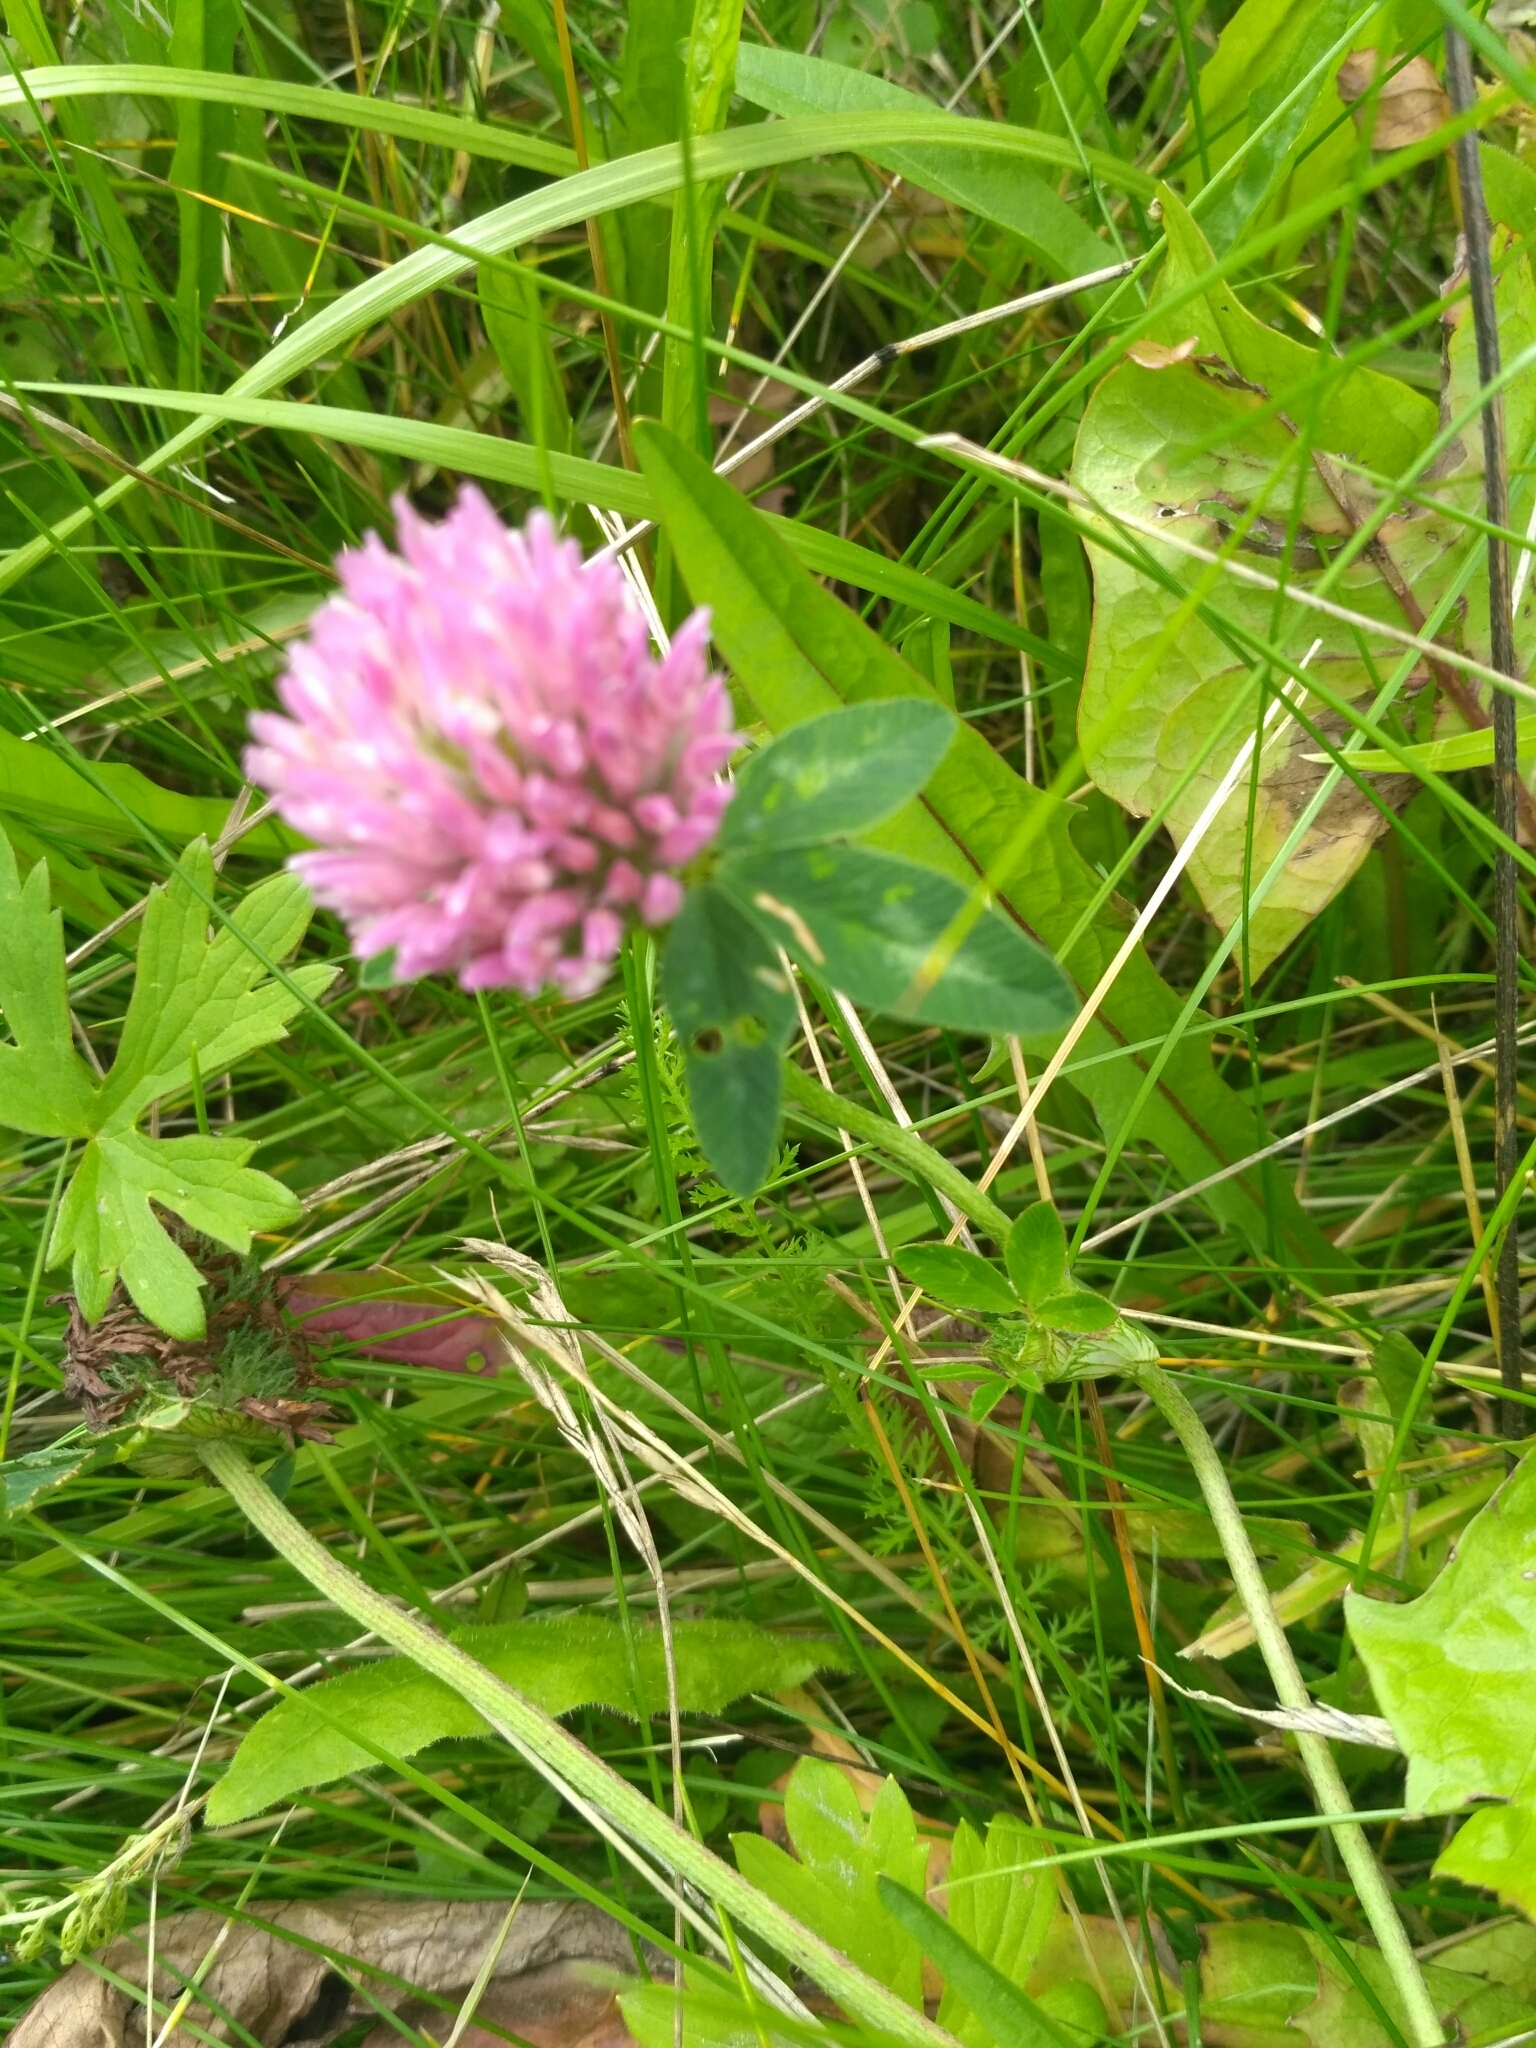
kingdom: Plantae
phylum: Tracheophyta
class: Magnoliopsida
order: Fabales
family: Fabaceae
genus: Trifolium
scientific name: Trifolium pratense
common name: Red clover
